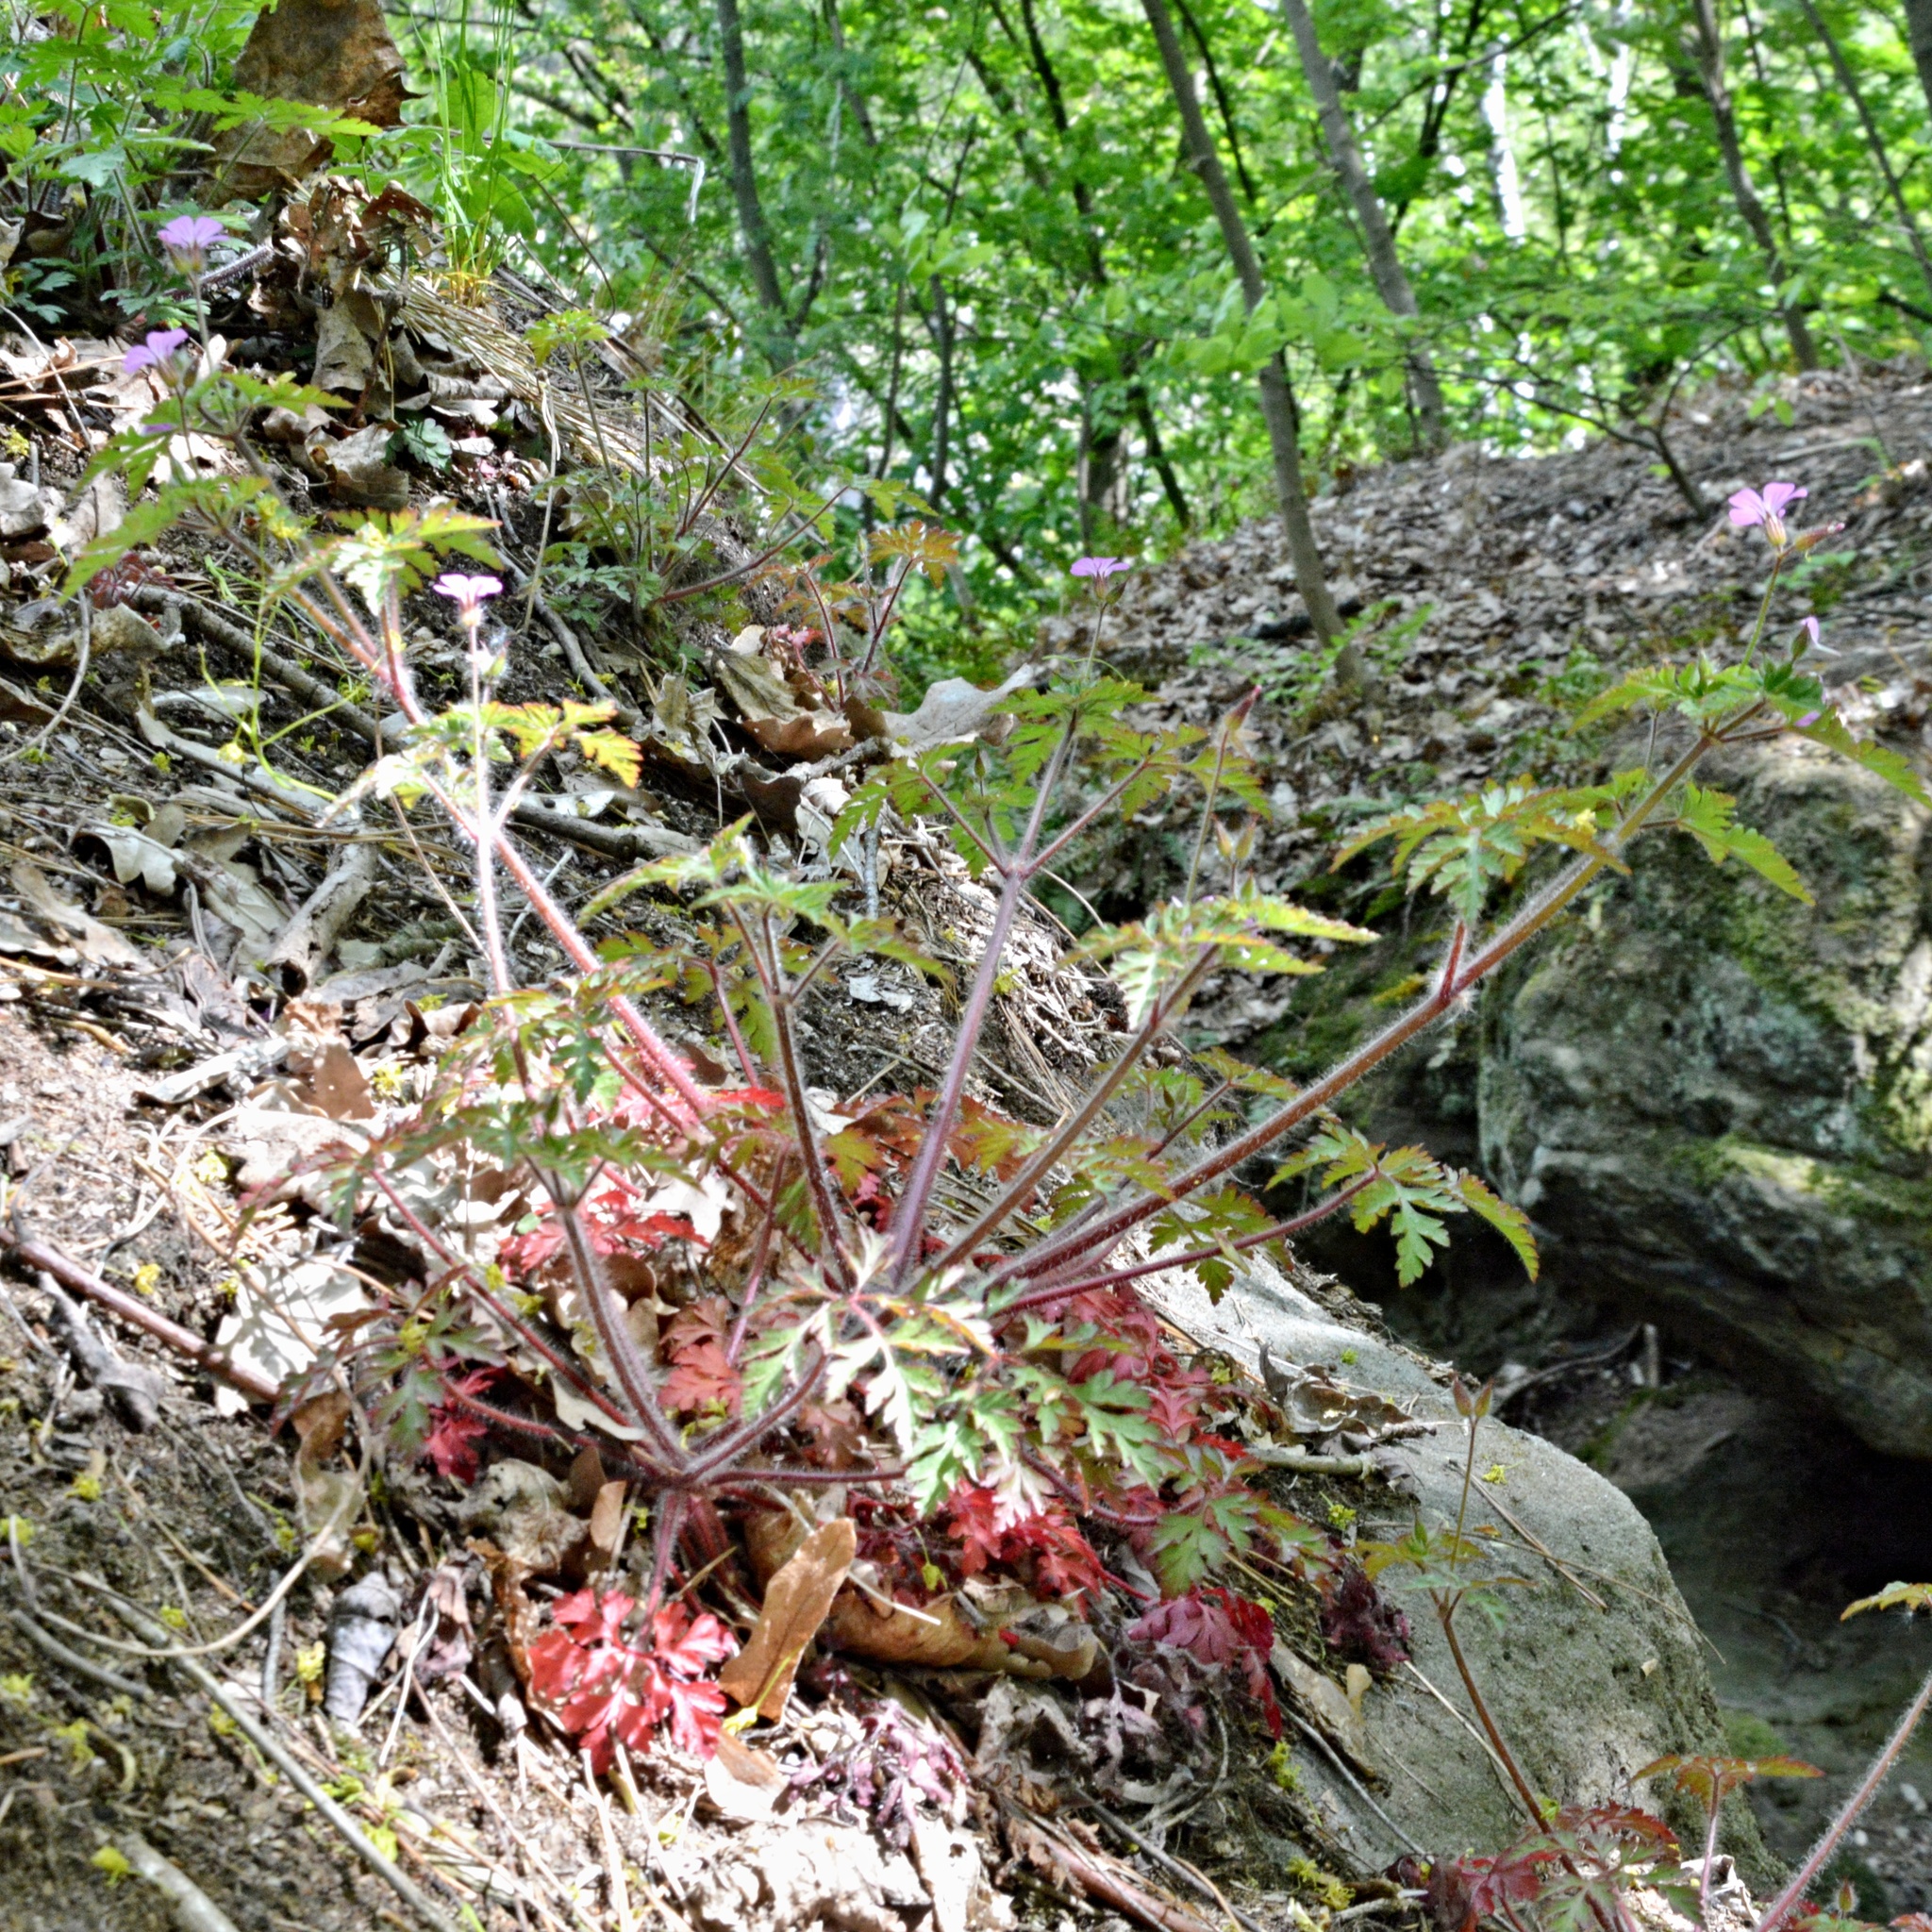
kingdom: Plantae
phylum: Tracheophyta
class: Magnoliopsida
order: Geraniales
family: Geraniaceae
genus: Geranium
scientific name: Geranium robertianum
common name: Herb-robert
